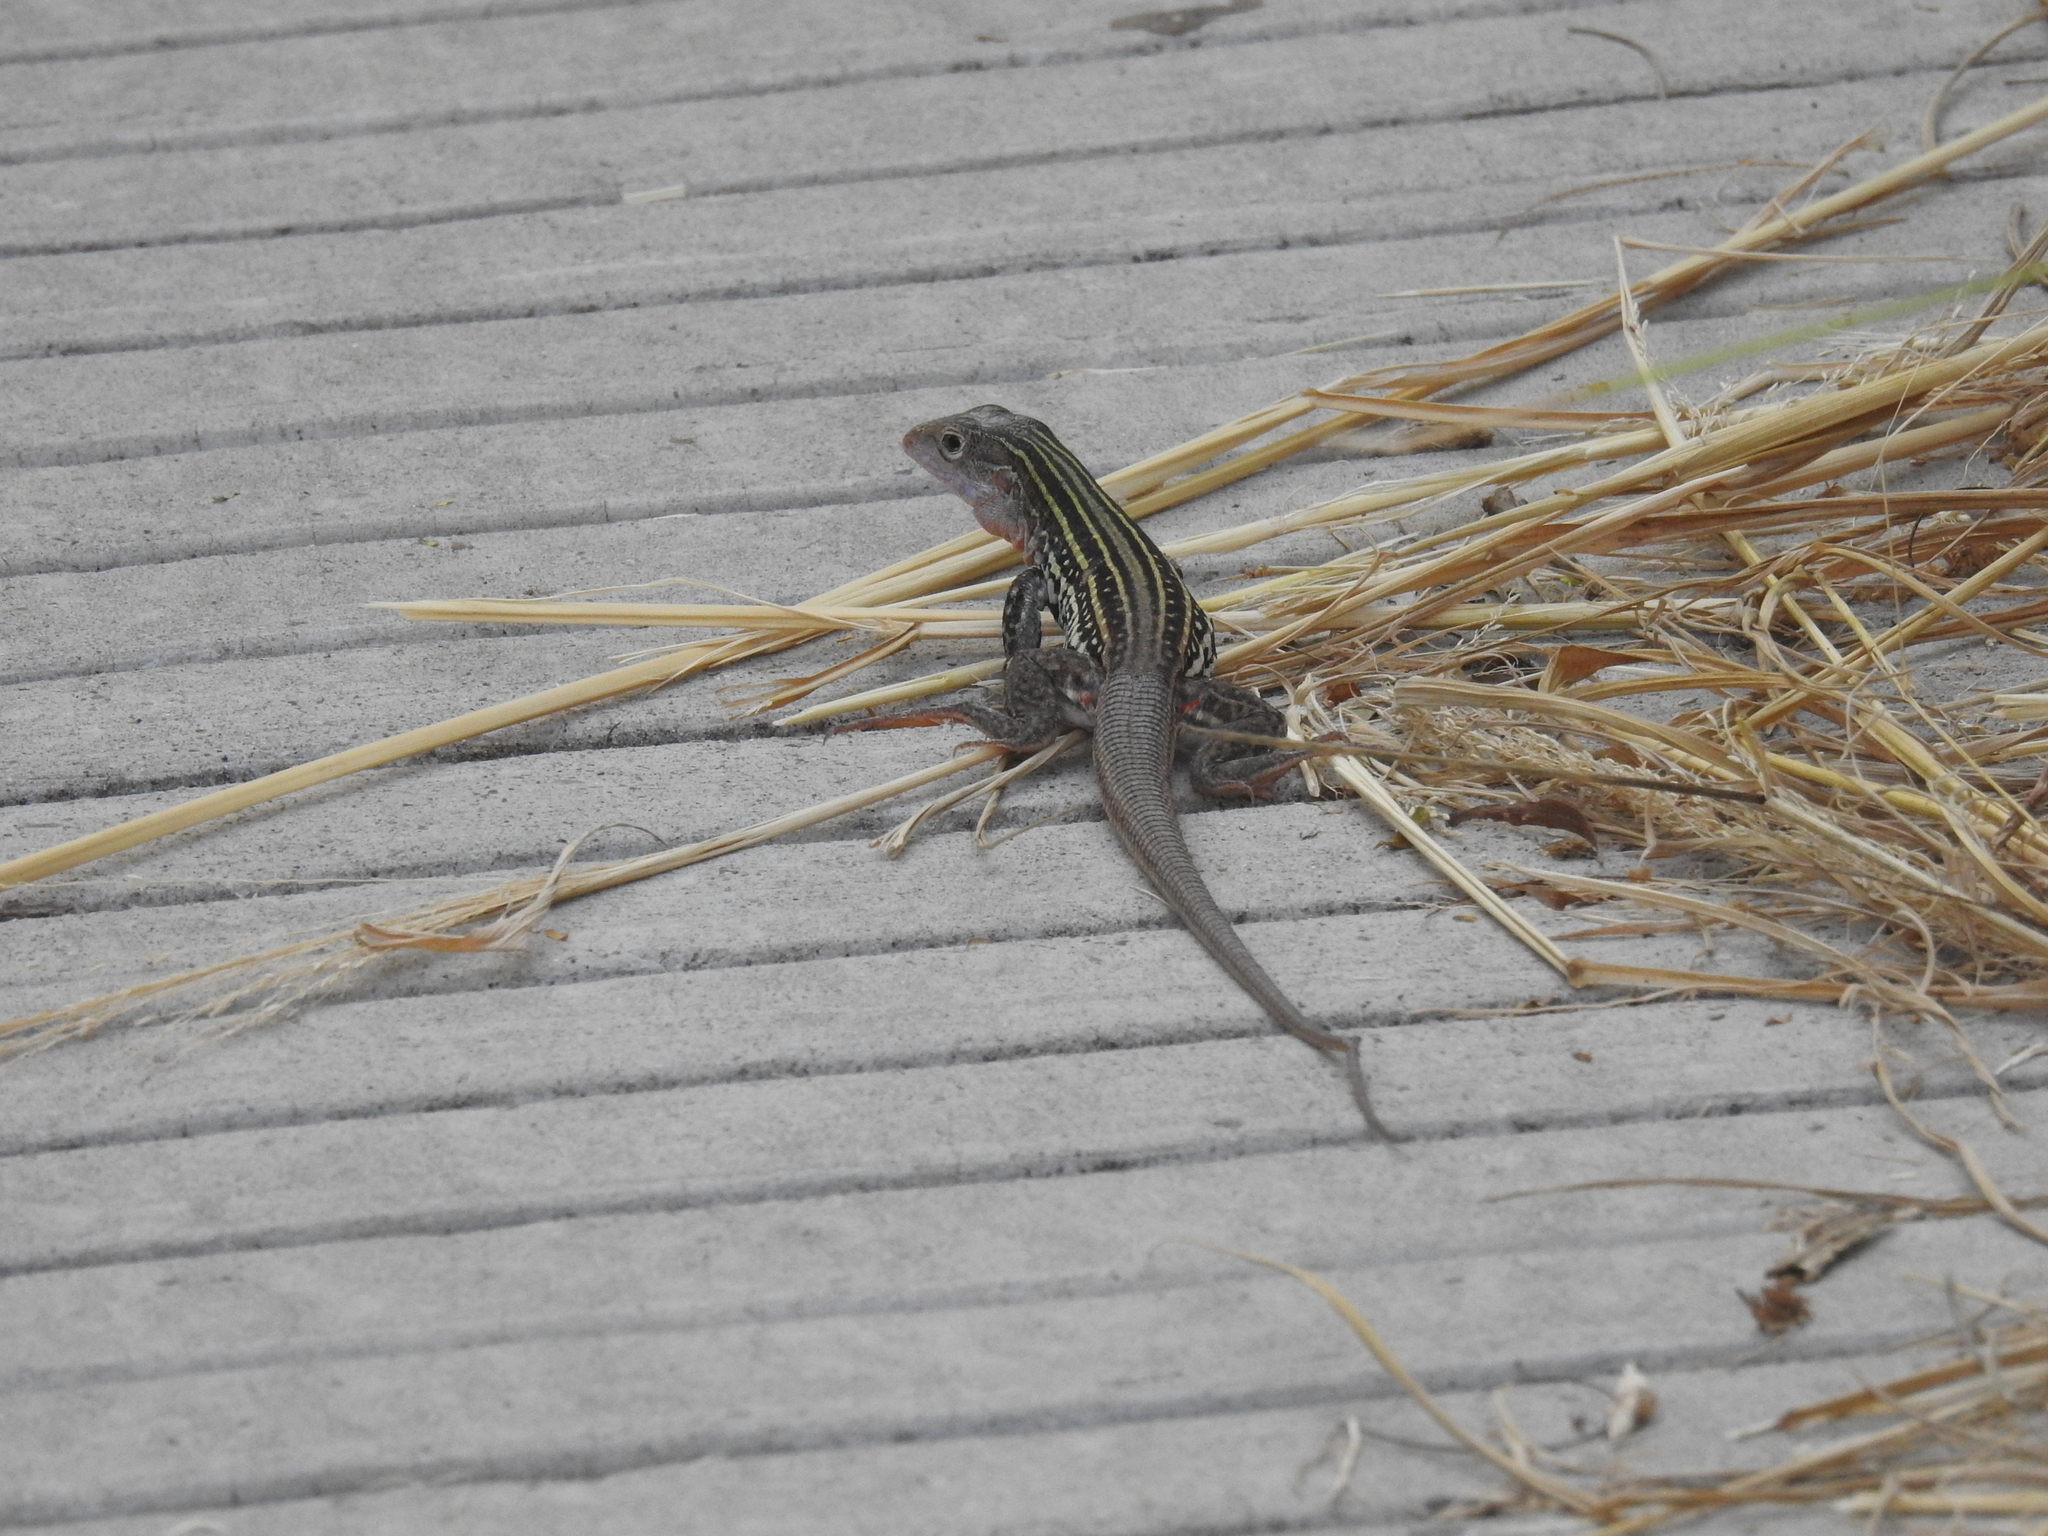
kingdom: Animalia
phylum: Chordata
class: Squamata
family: Teiidae
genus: Aspidoscelis
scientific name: Aspidoscelis gularis
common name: Eastern spotted whiptail
